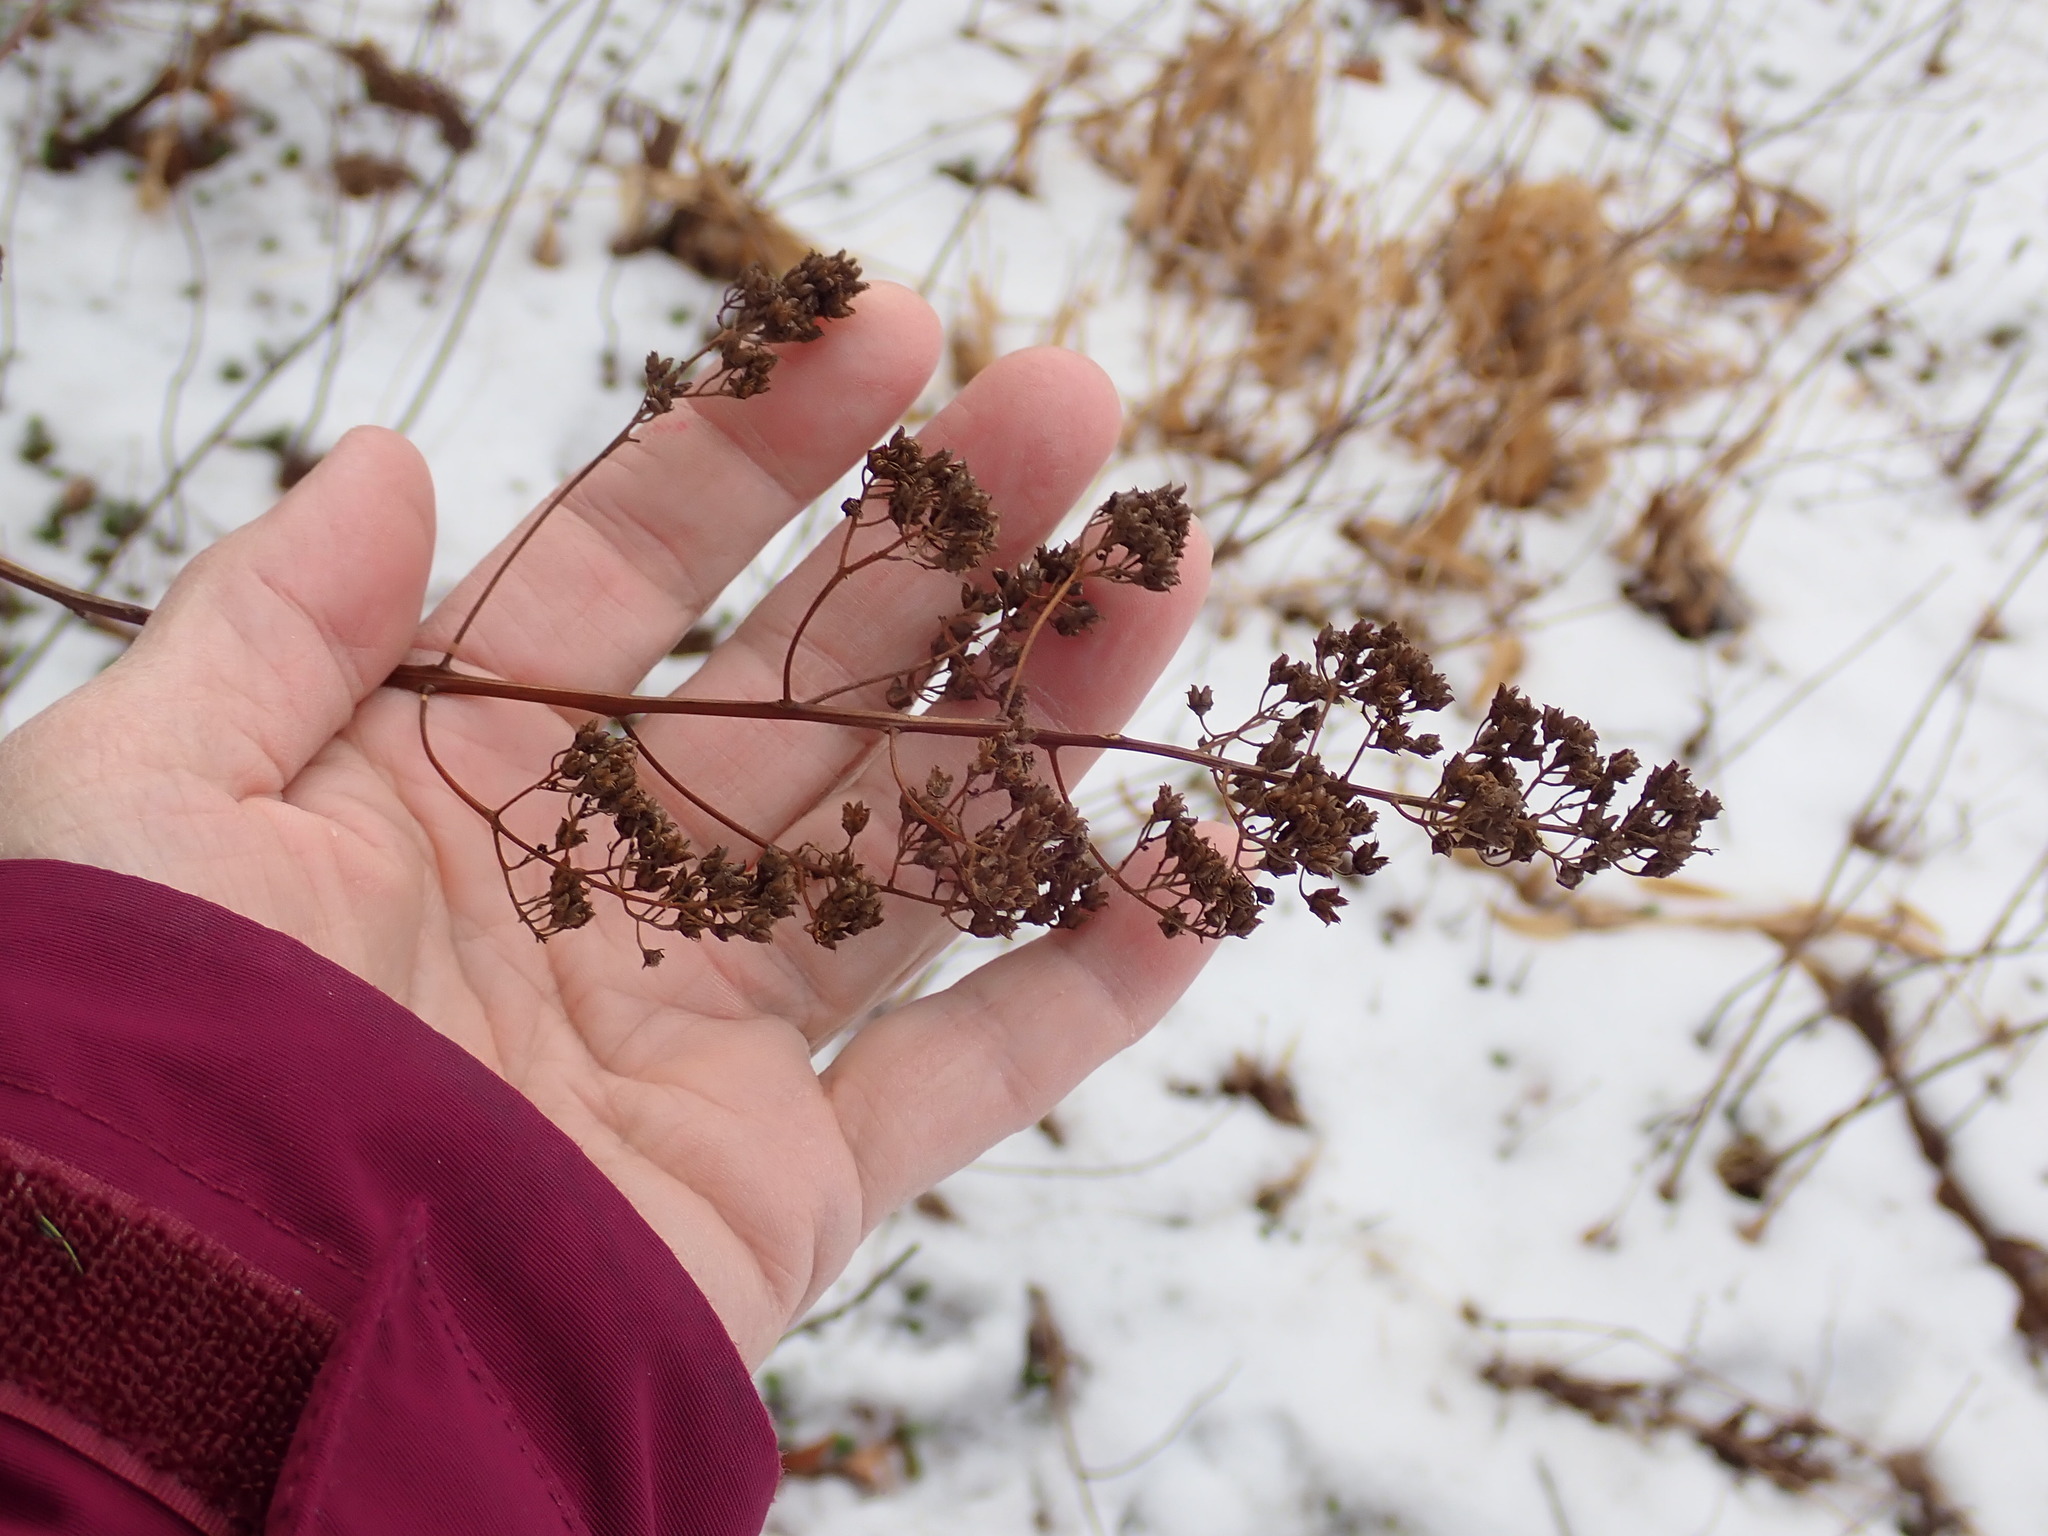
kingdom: Plantae
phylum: Tracheophyta
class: Magnoliopsida
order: Rosales
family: Rosaceae
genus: Spiraea
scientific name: Spiraea alba
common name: Pale bridewort
